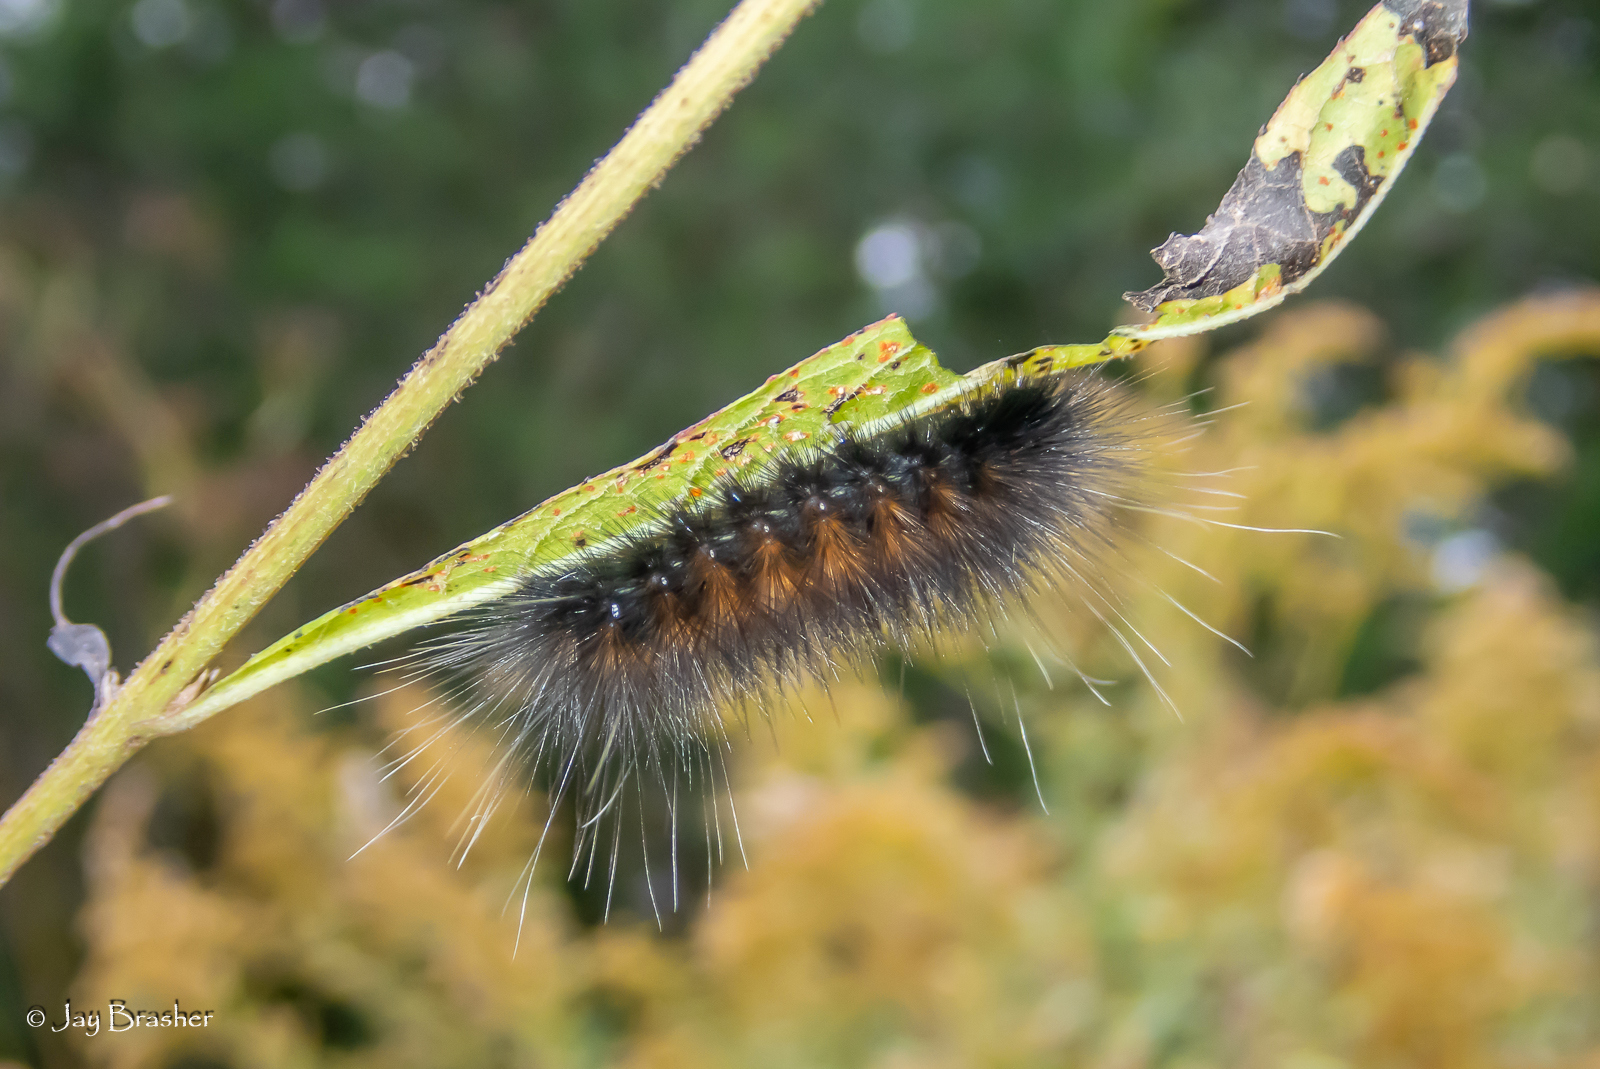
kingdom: Animalia
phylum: Arthropoda
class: Insecta
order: Lepidoptera
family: Erebidae
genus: Estigmene
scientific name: Estigmene acrea
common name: Salt marsh moth
